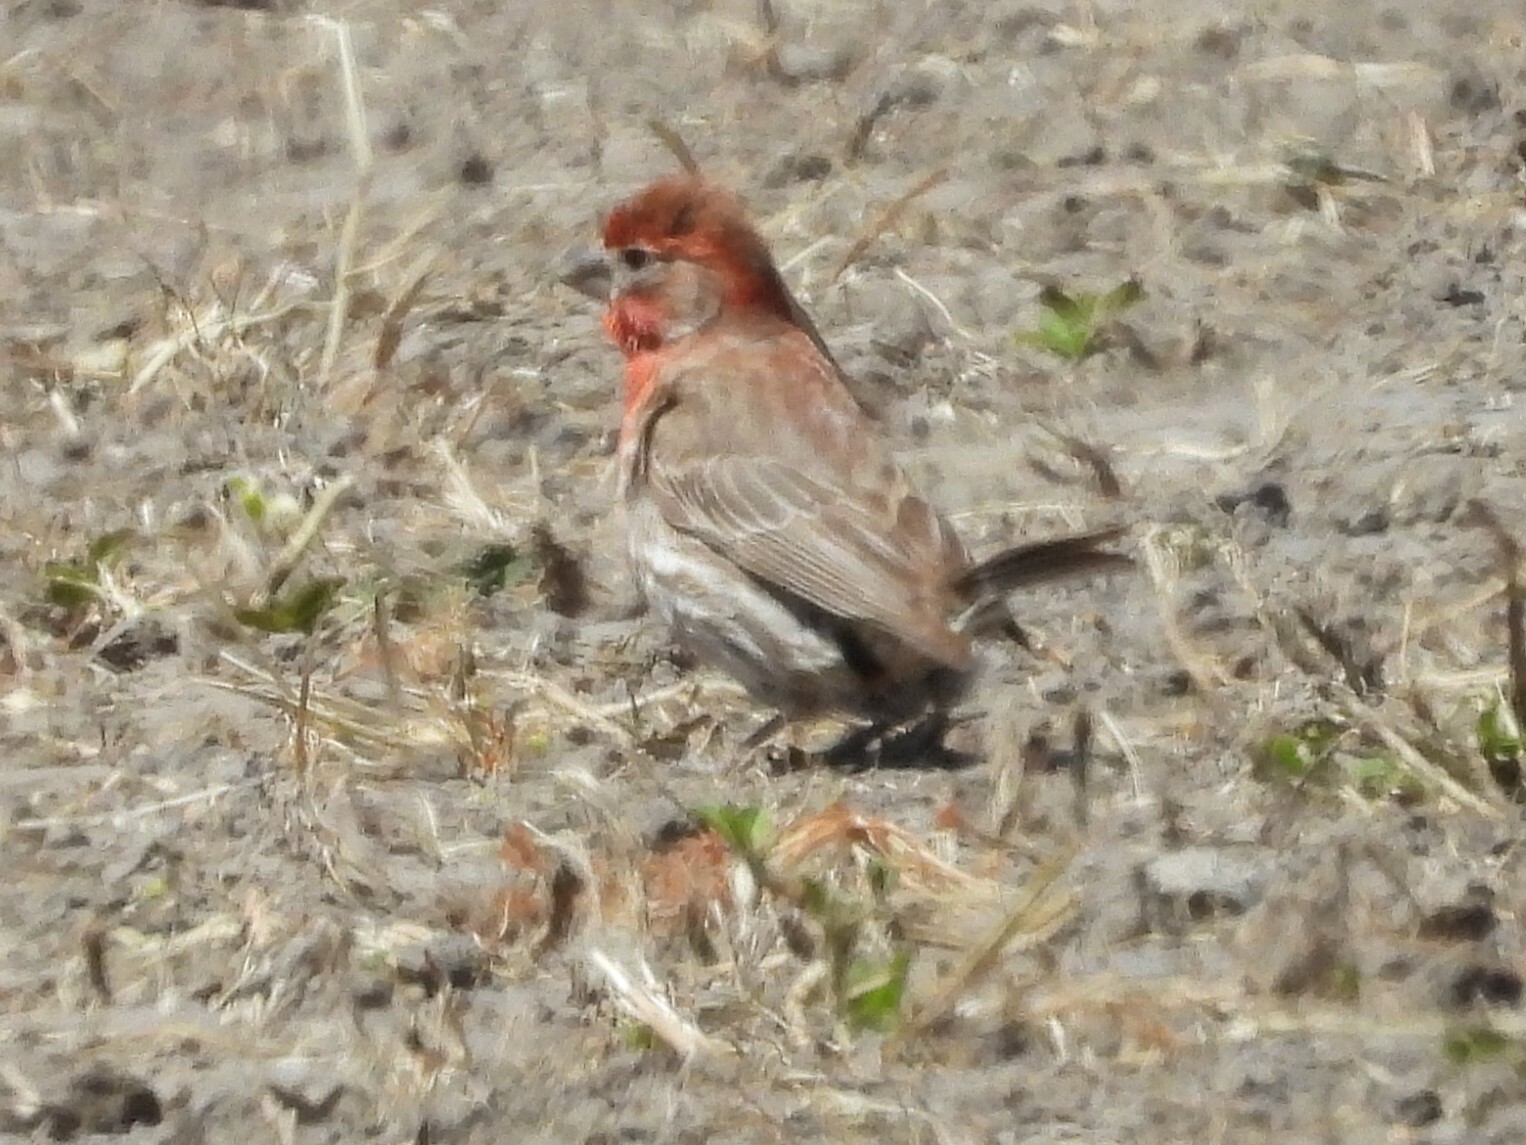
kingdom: Animalia
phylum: Chordata
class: Aves
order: Passeriformes
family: Fringillidae
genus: Haemorhous
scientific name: Haemorhous mexicanus
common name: House finch
